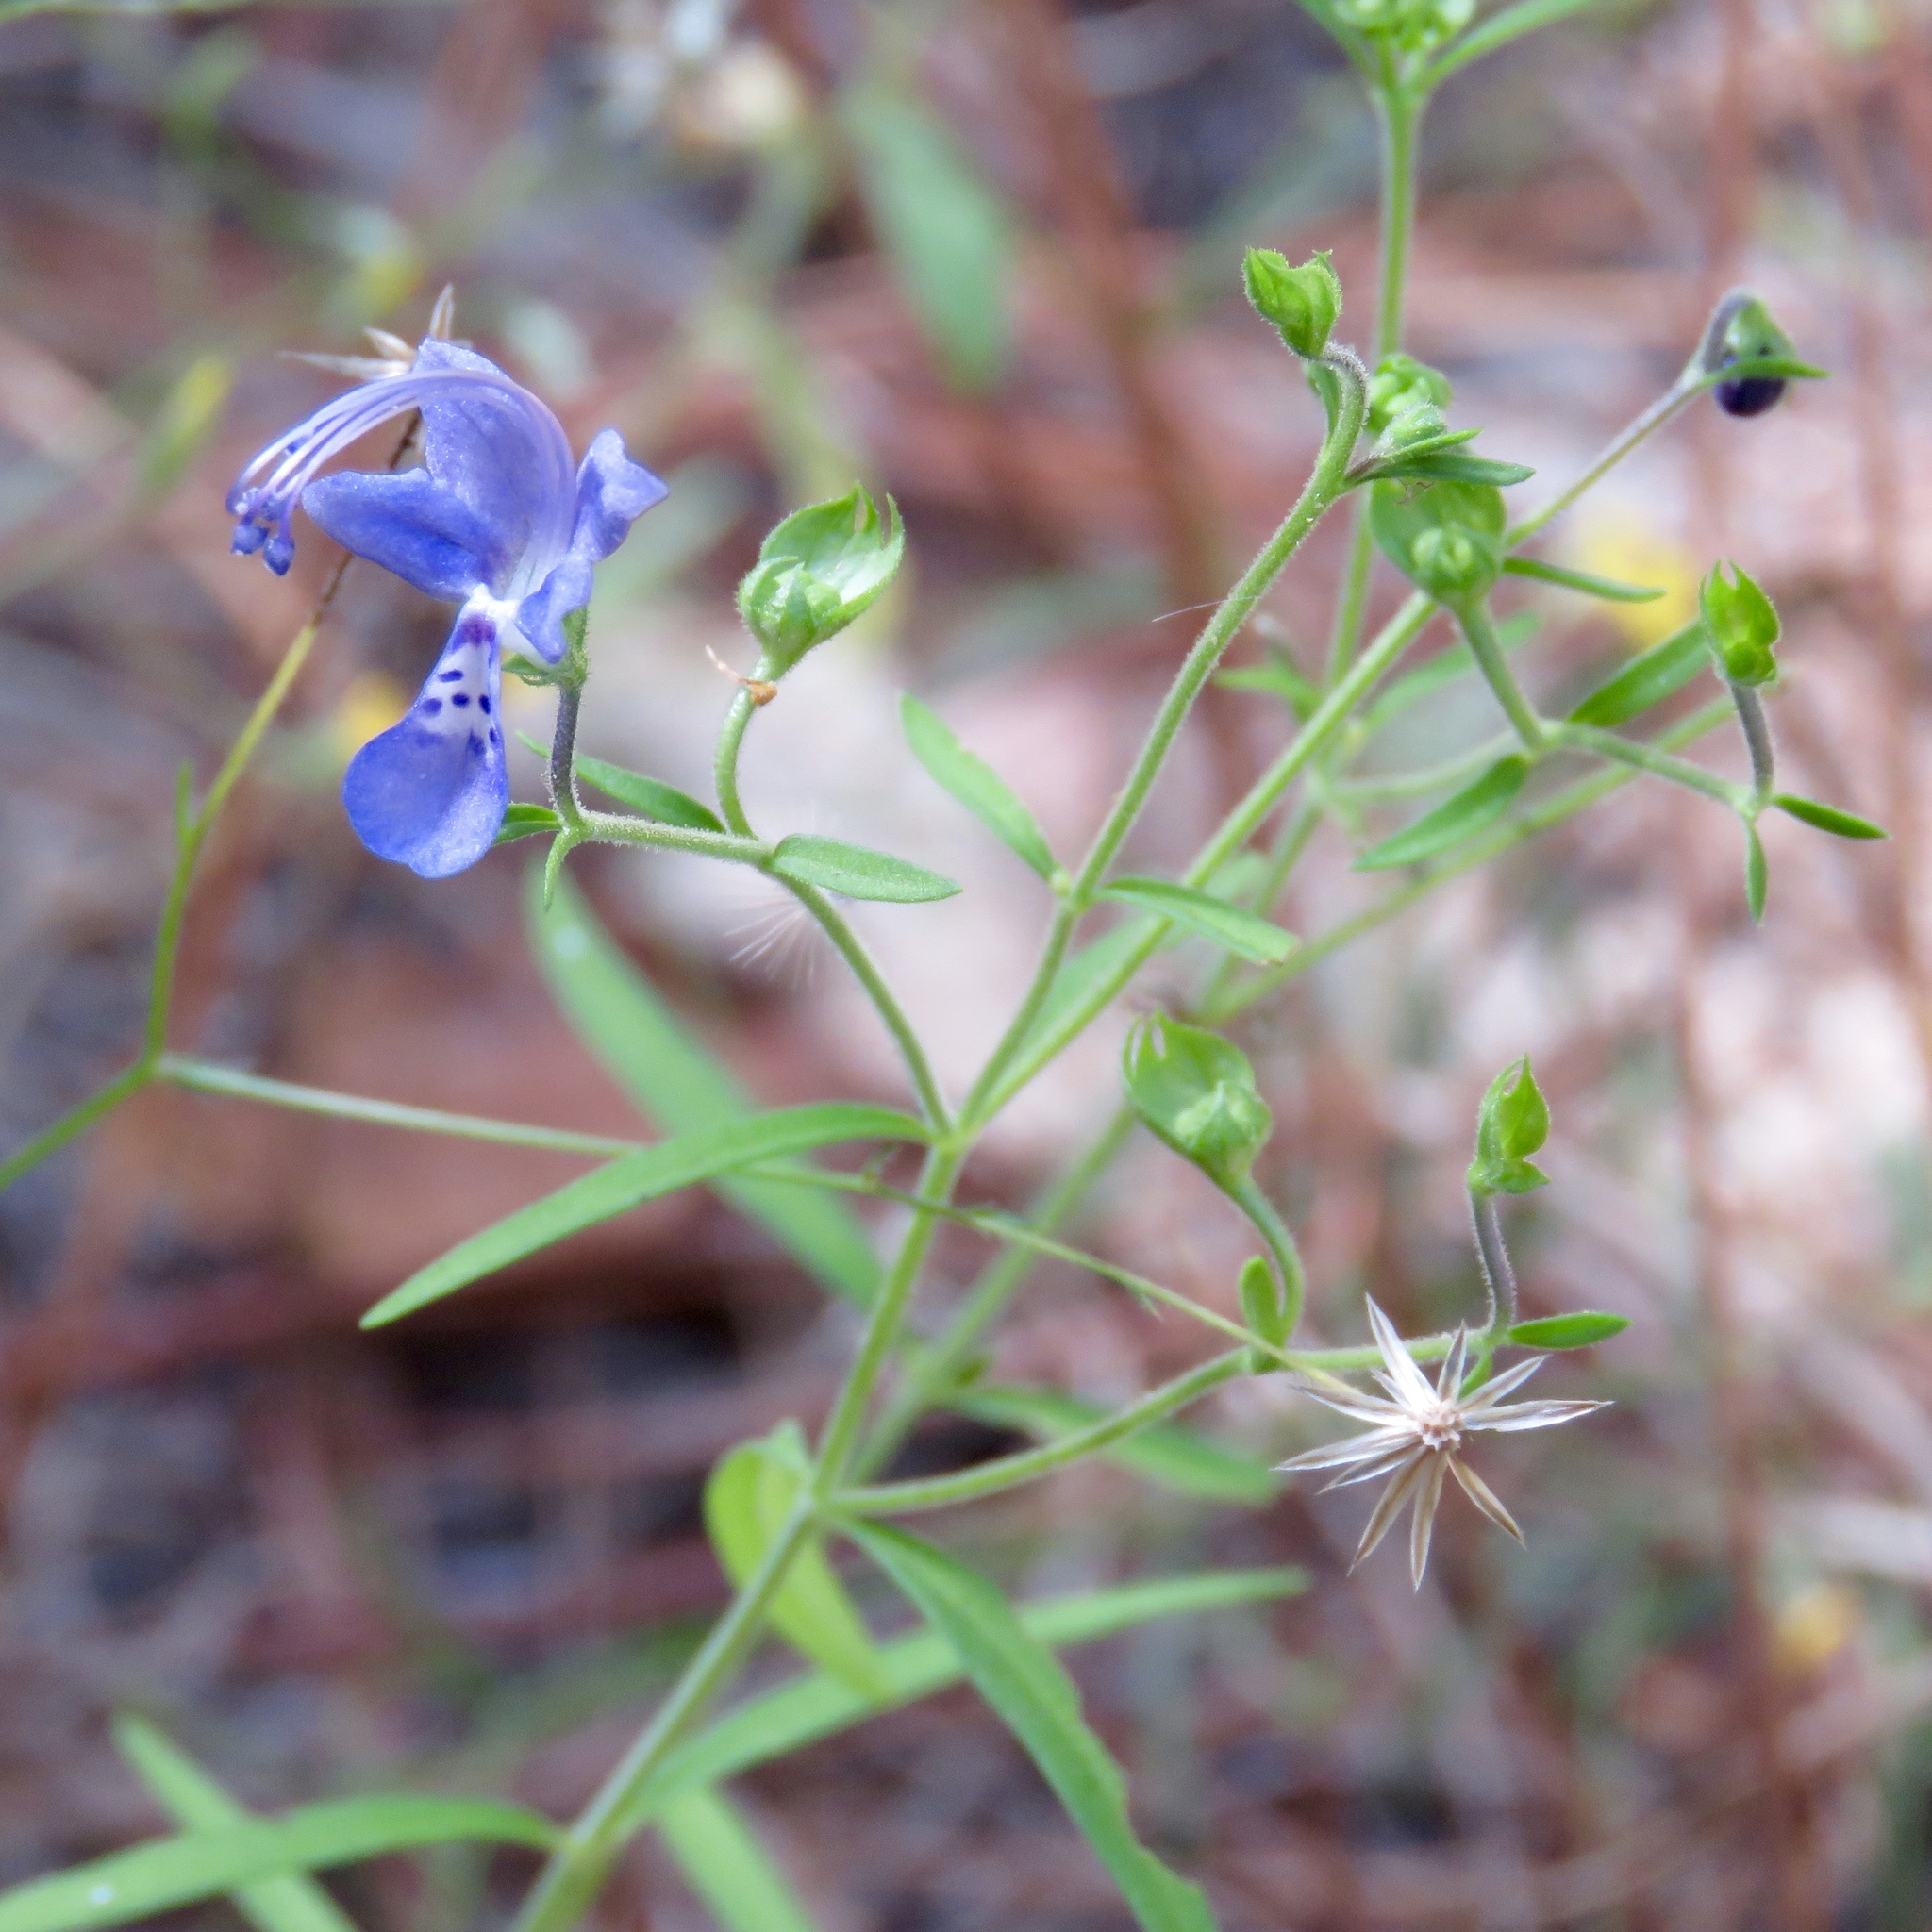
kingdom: Plantae
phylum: Tracheophyta
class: Magnoliopsida
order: Lamiales
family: Lamiaceae
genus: Trichostema
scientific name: Trichostema setaceum
